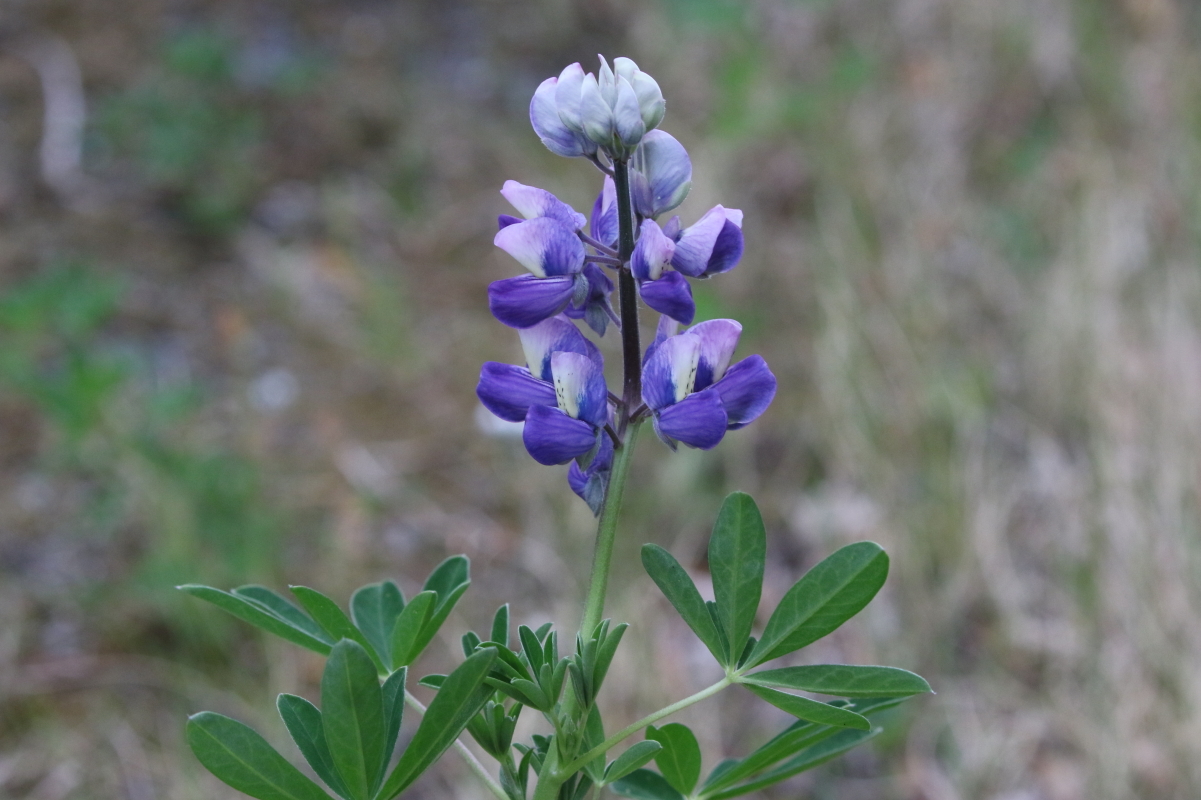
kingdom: Plantae
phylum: Tracheophyta
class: Magnoliopsida
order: Fabales
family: Fabaceae
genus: Lupinus
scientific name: Lupinus nootkatensis
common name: Nootka lupine
